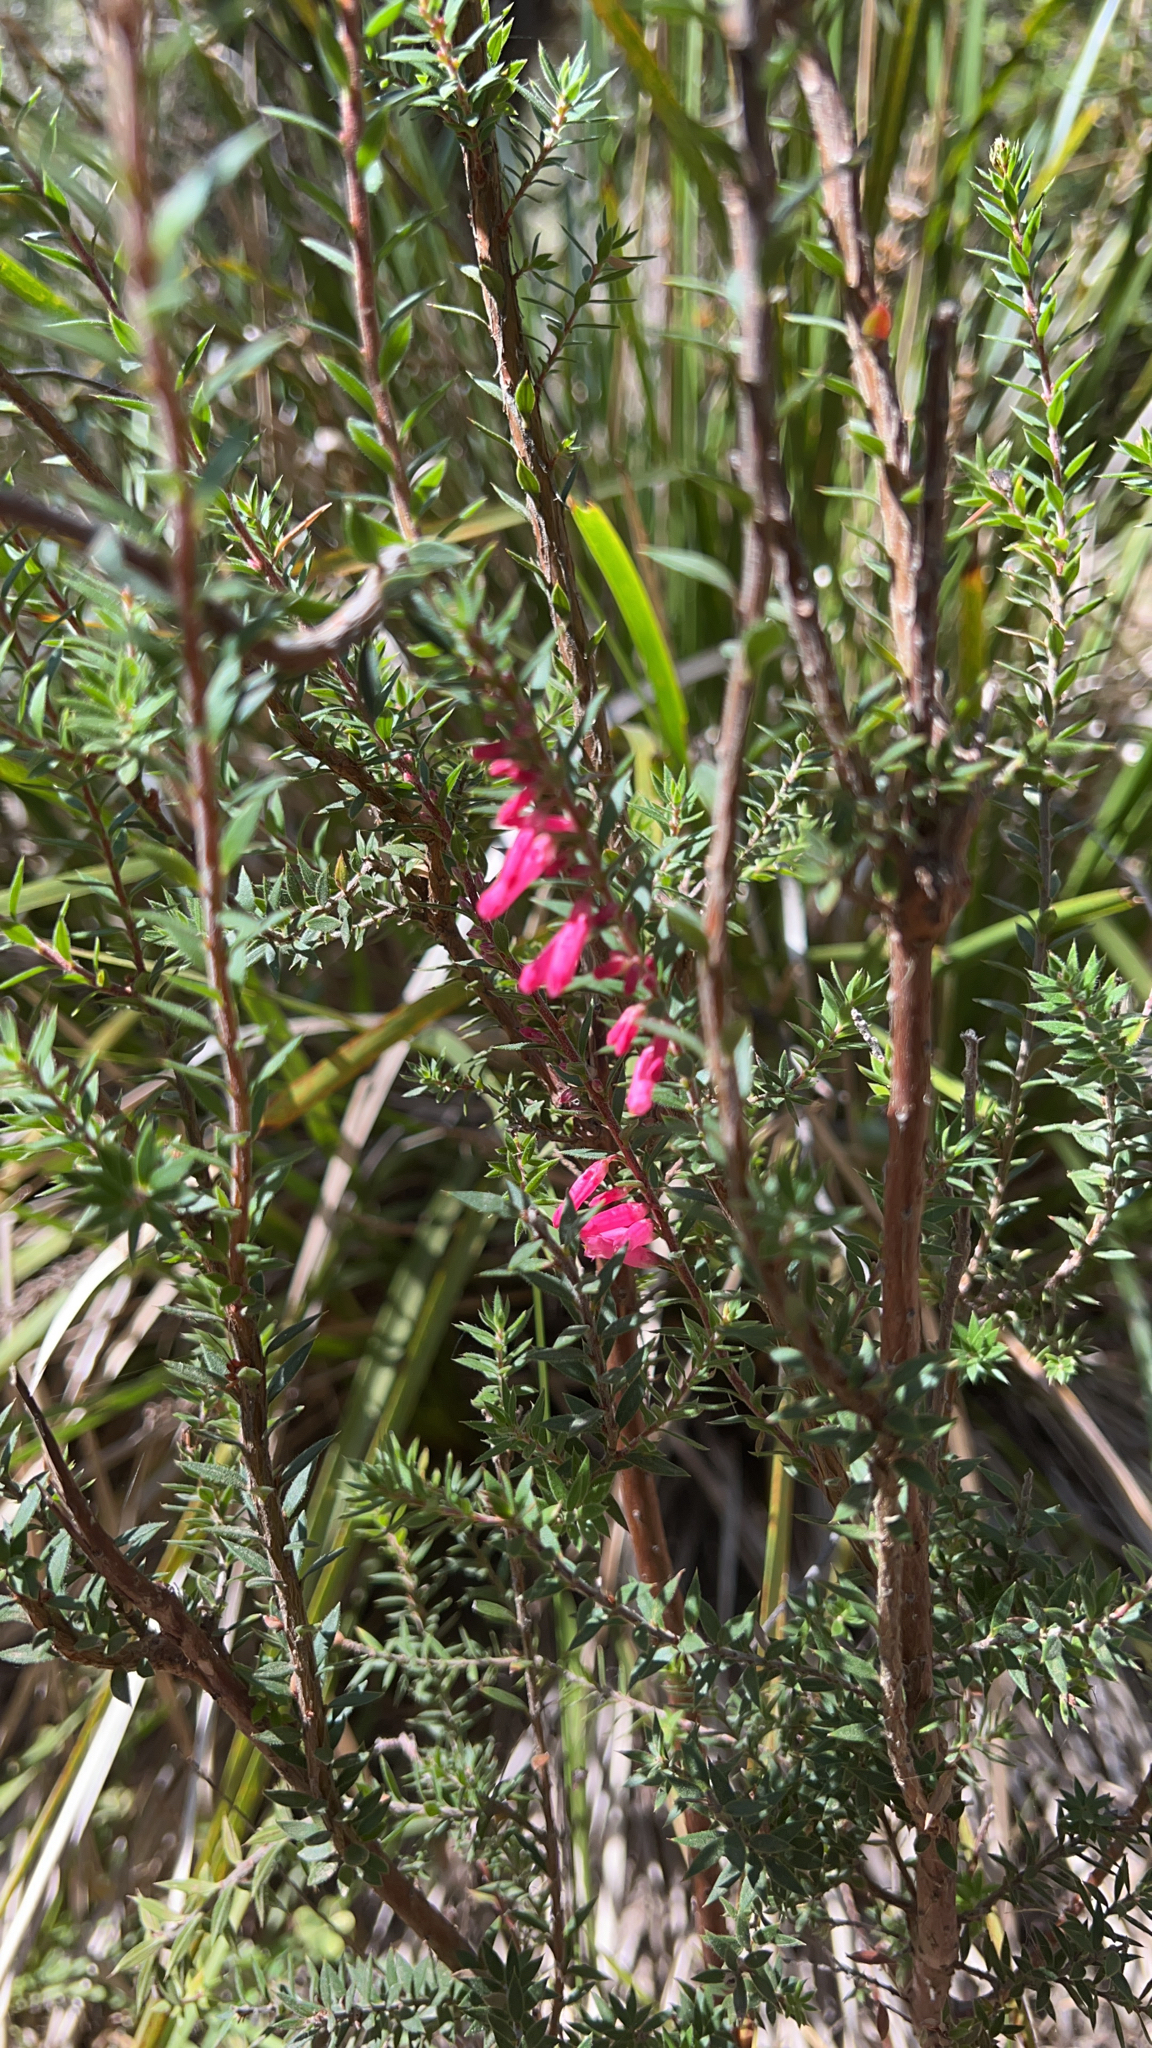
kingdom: Plantae
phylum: Tracheophyta
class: Magnoliopsida
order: Ericales
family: Ericaceae
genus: Epacris
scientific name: Epacris impressa
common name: Common-heath
